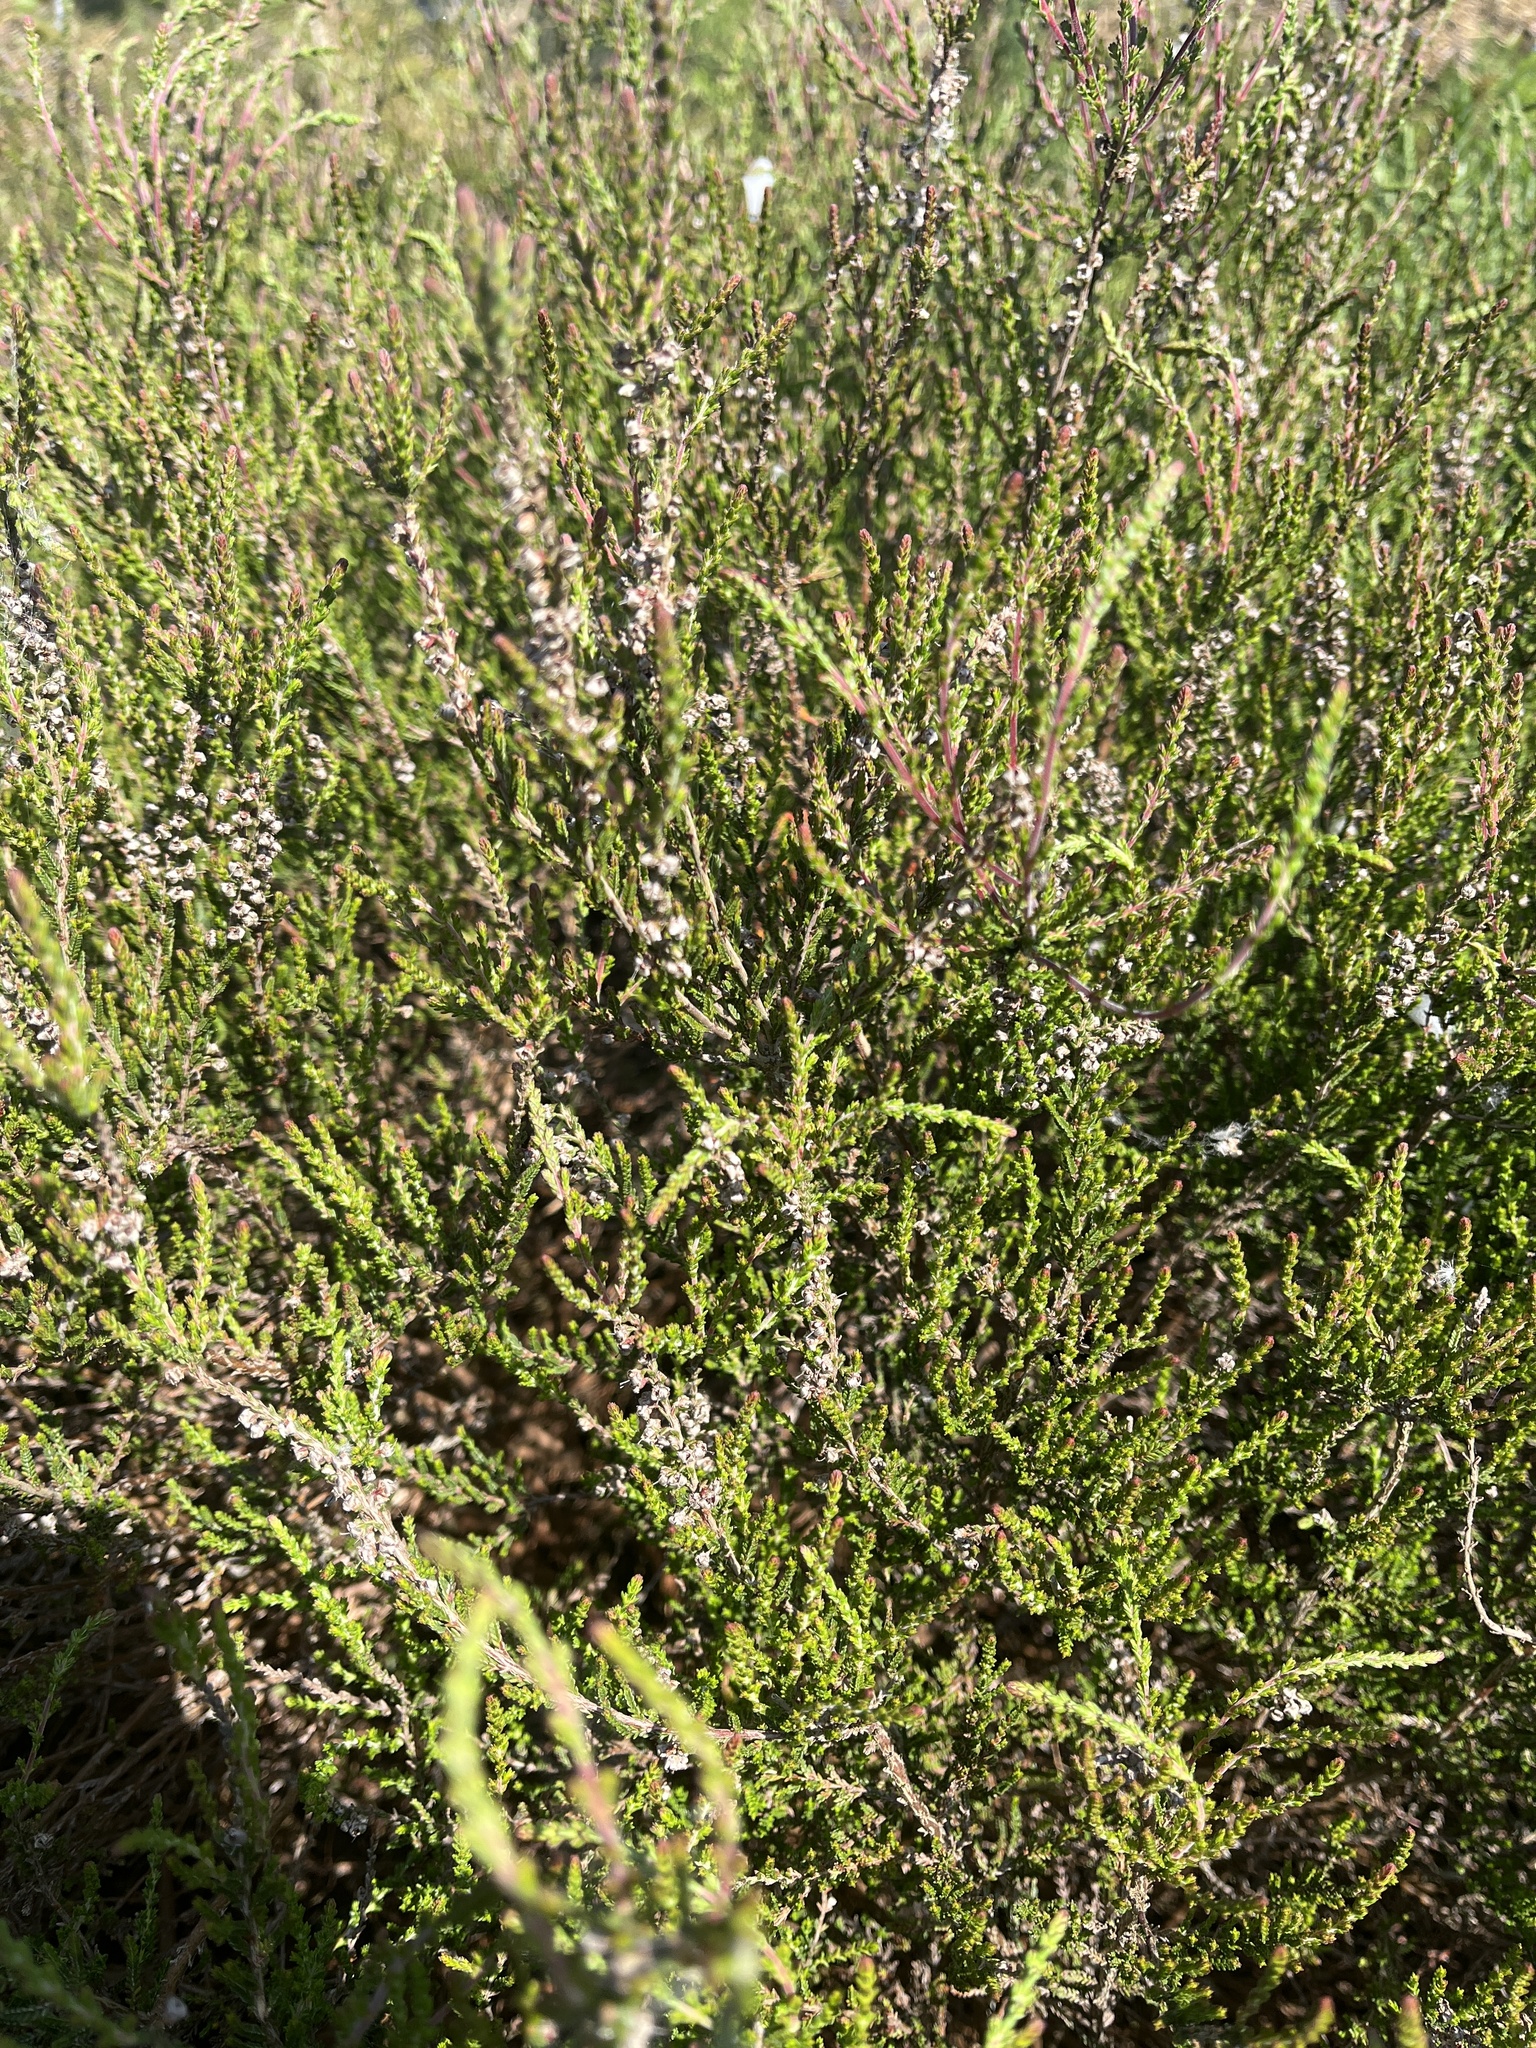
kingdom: Plantae
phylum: Tracheophyta
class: Magnoliopsida
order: Ericales
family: Ericaceae
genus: Calluna
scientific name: Calluna vulgaris
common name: Heather
